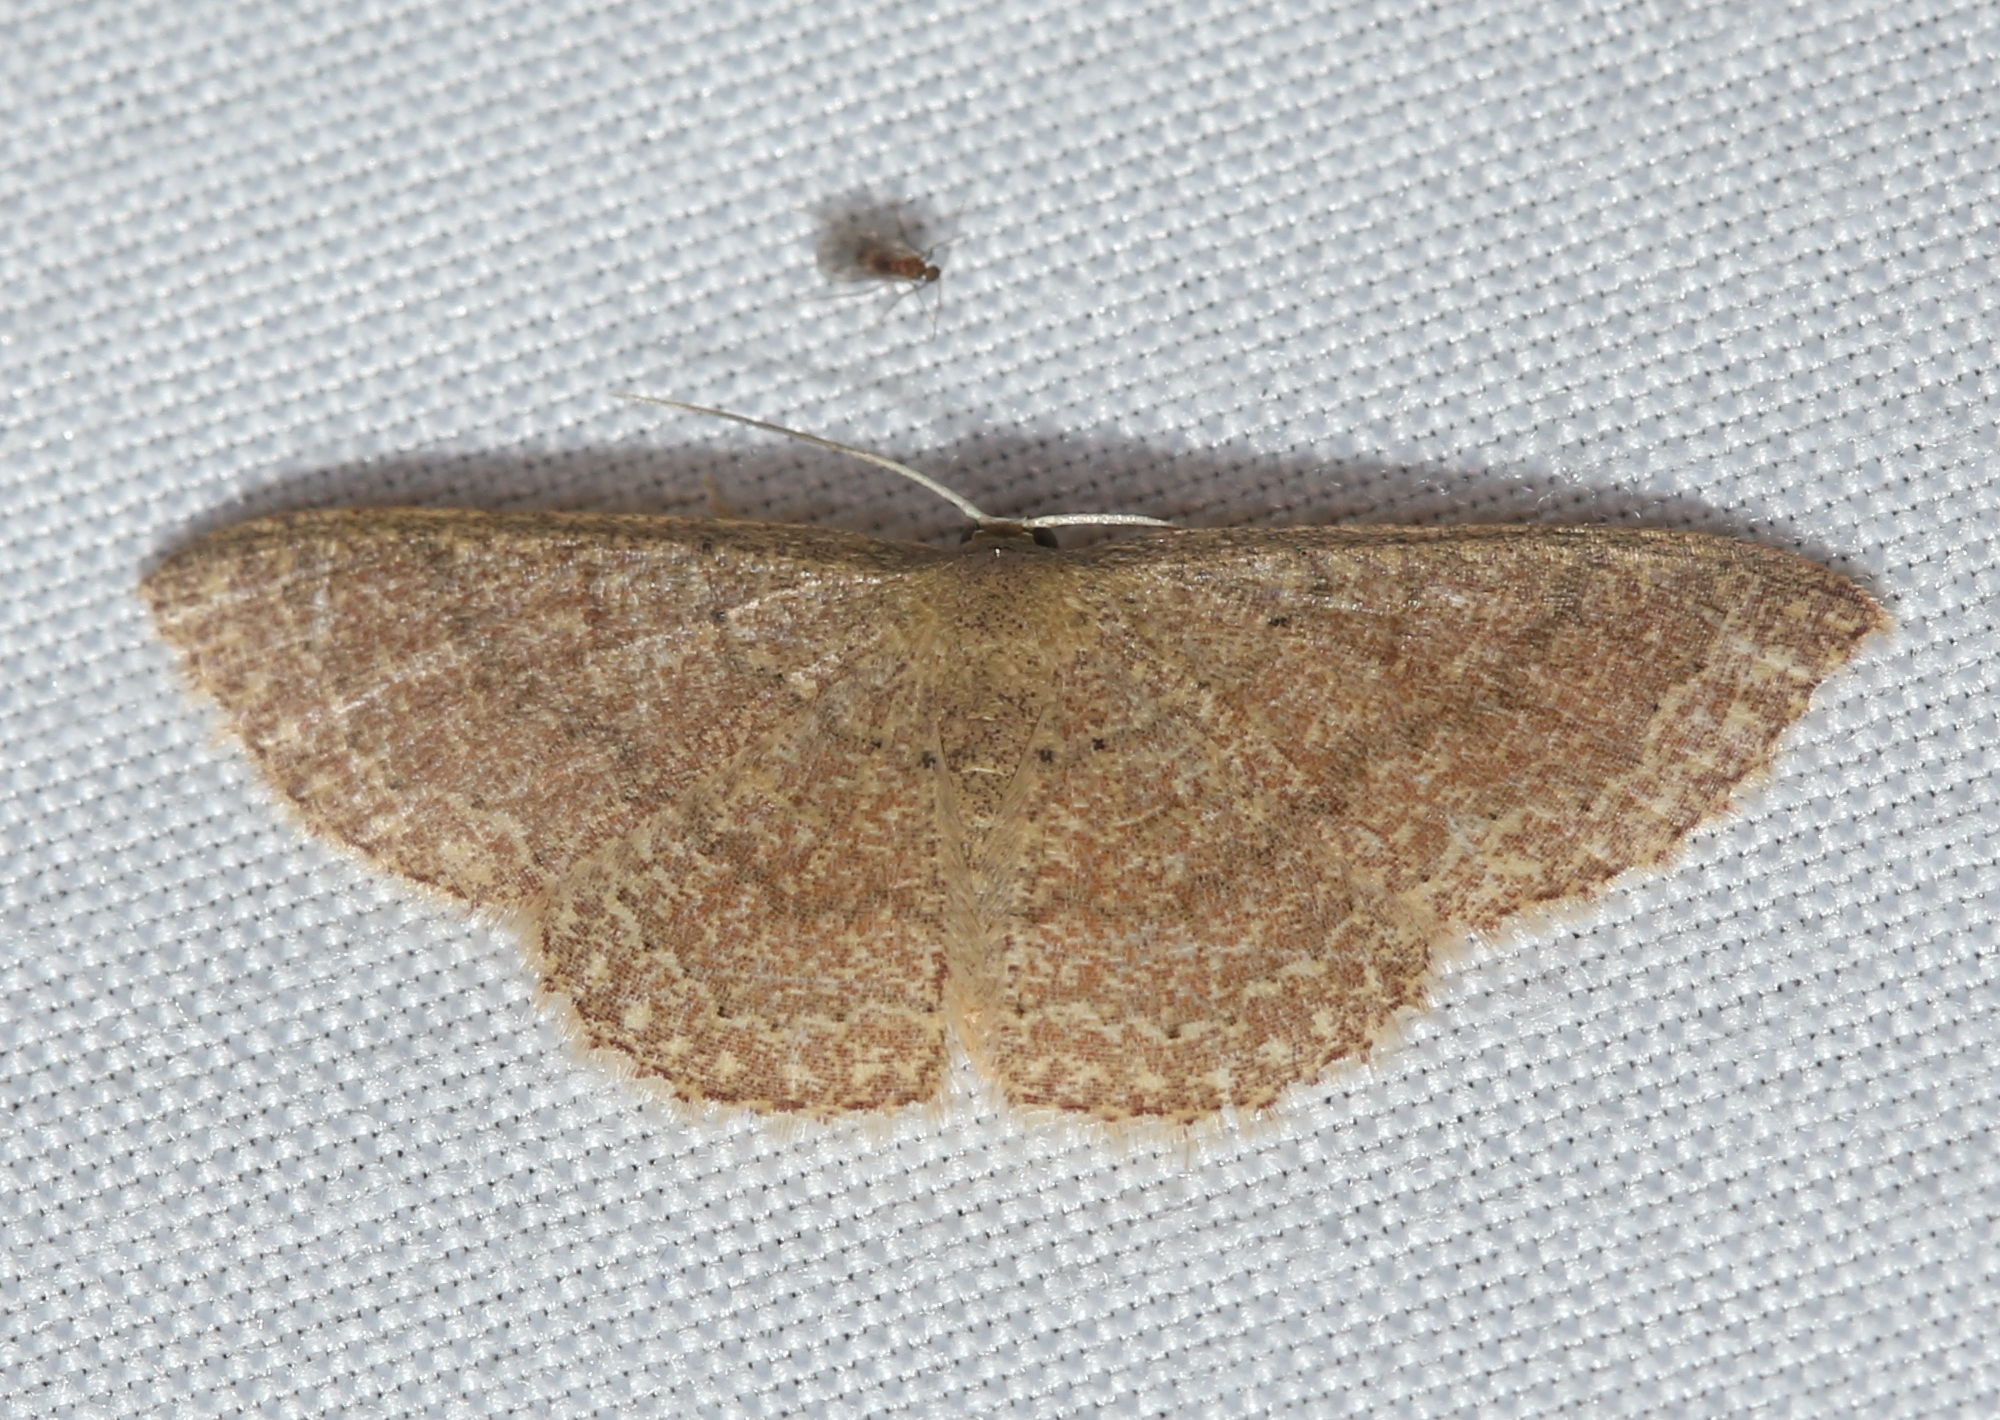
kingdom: Animalia
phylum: Arthropoda
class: Insecta
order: Lepidoptera
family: Geometridae
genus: Pleuroprucha
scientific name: Pleuroprucha insulsaria
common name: Common tan wave
